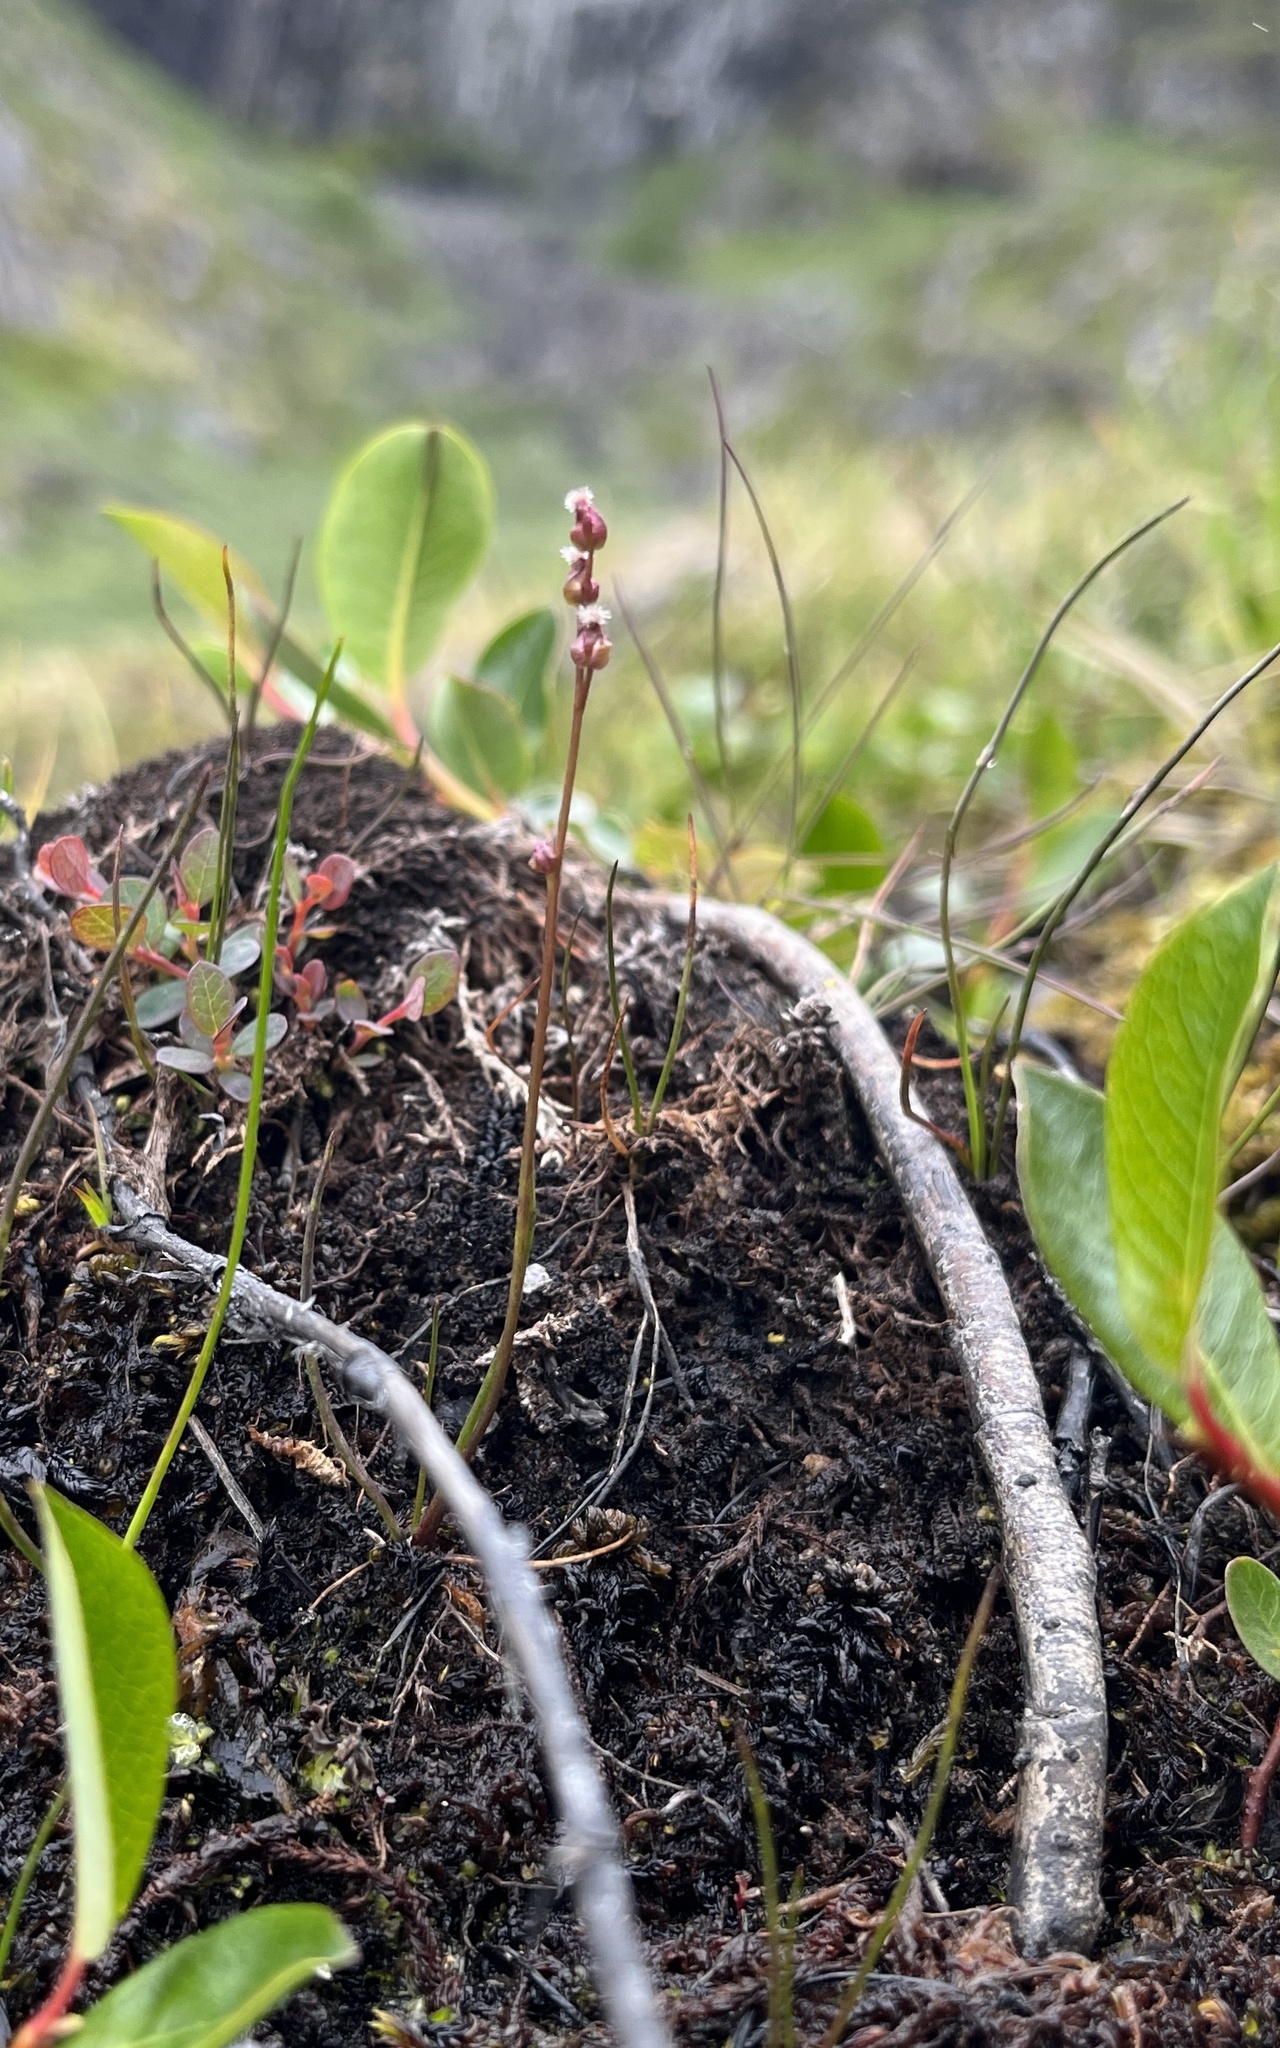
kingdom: Plantae
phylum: Tracheophyta
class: Liliopsida
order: Alismatales
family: Juncaginaceae
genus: Triglochin
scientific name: Triglochin palustris
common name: Marsh arrowgrass
